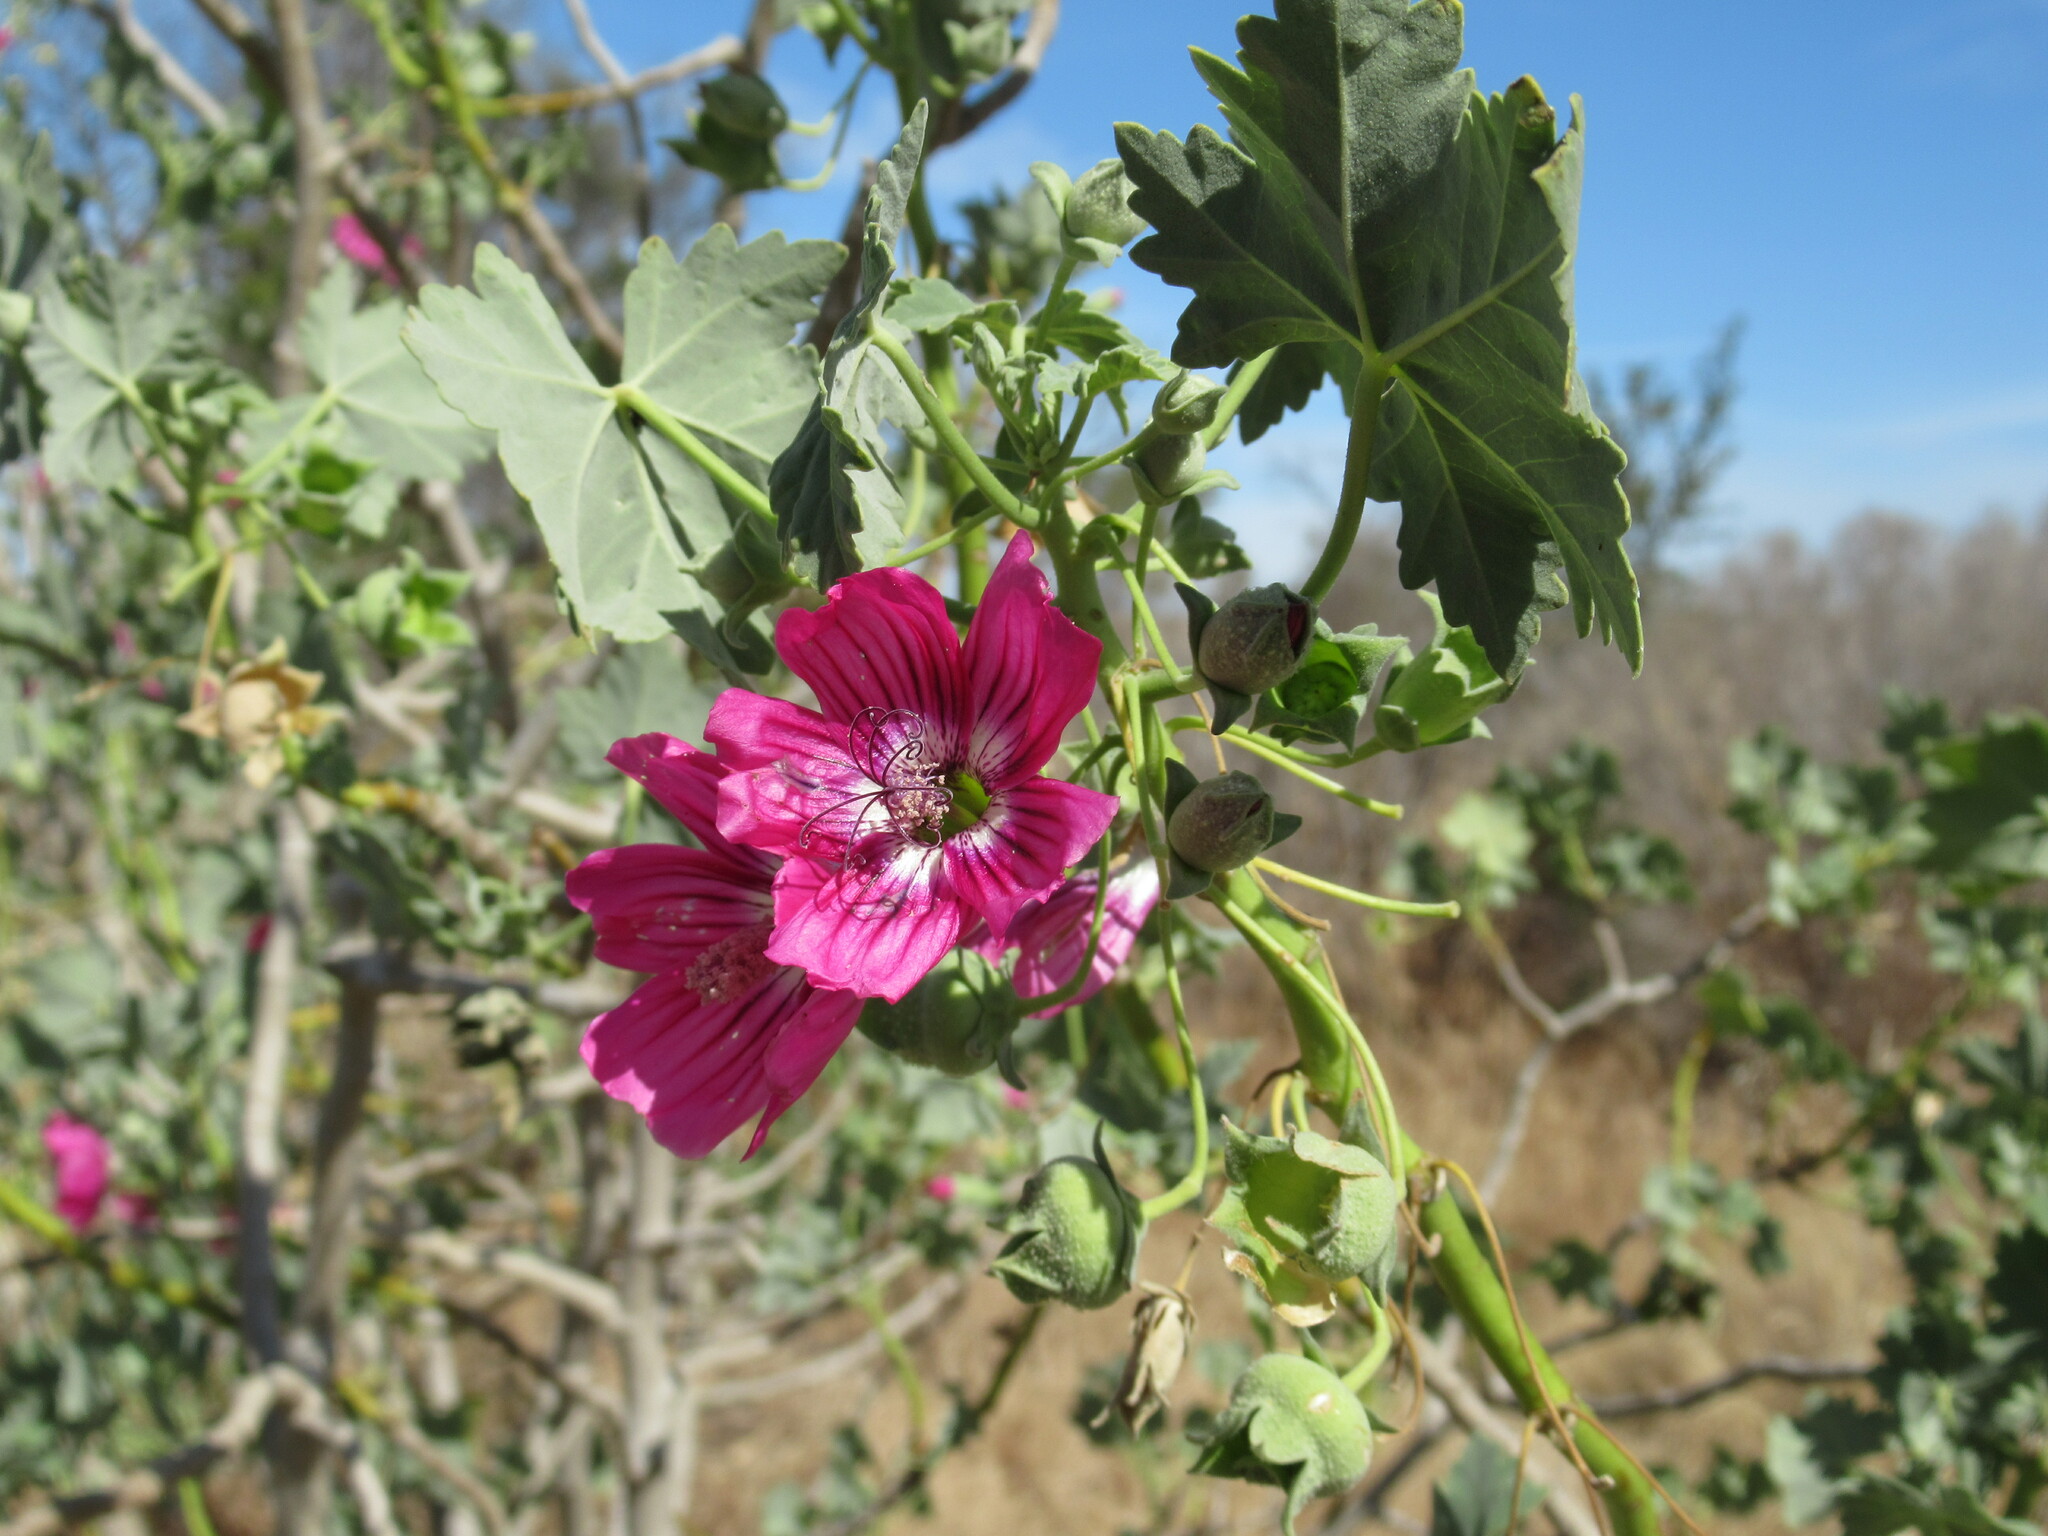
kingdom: Plantae
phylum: Tracheophyta
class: Magnoliopsida
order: Malvales
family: Malvaceae
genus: Malva
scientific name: Malva assurgentiflora
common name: Island mallow
